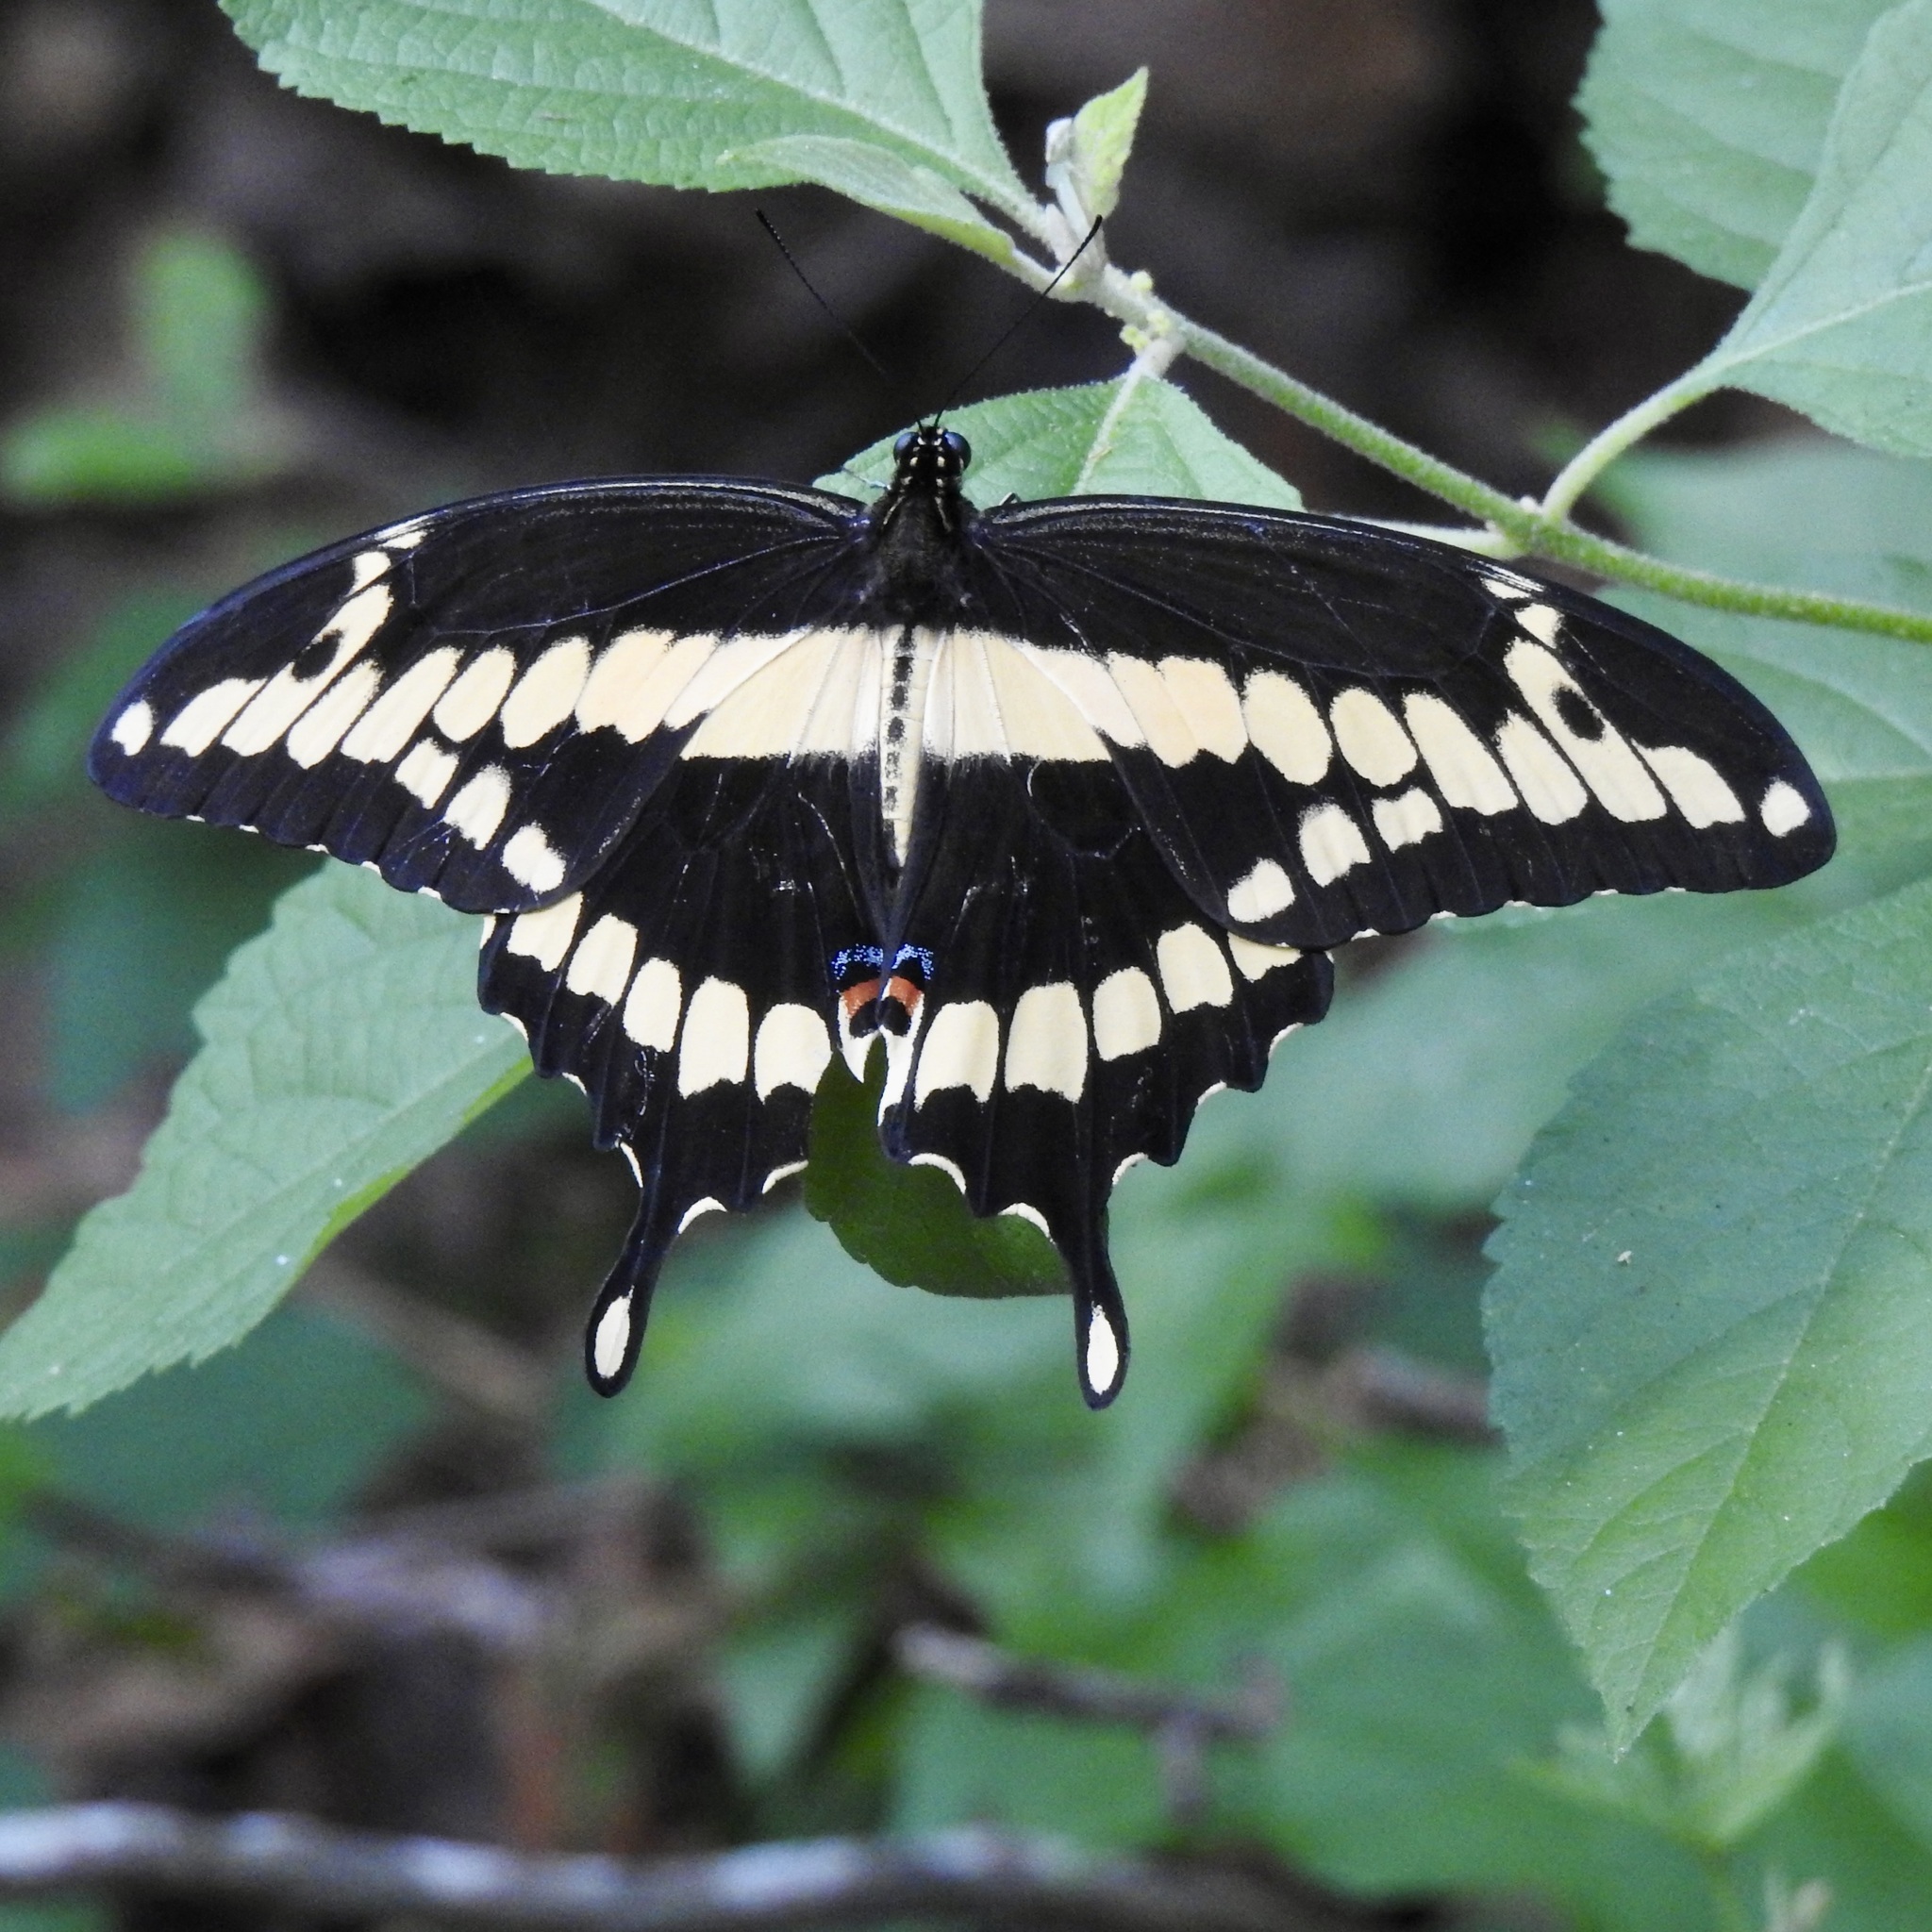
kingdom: Animalia
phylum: Arthropoda
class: Insecta
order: Lepidoptera
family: Papilionidae
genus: Papilio
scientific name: Papilio cresphontes
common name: Giant swallowtail
